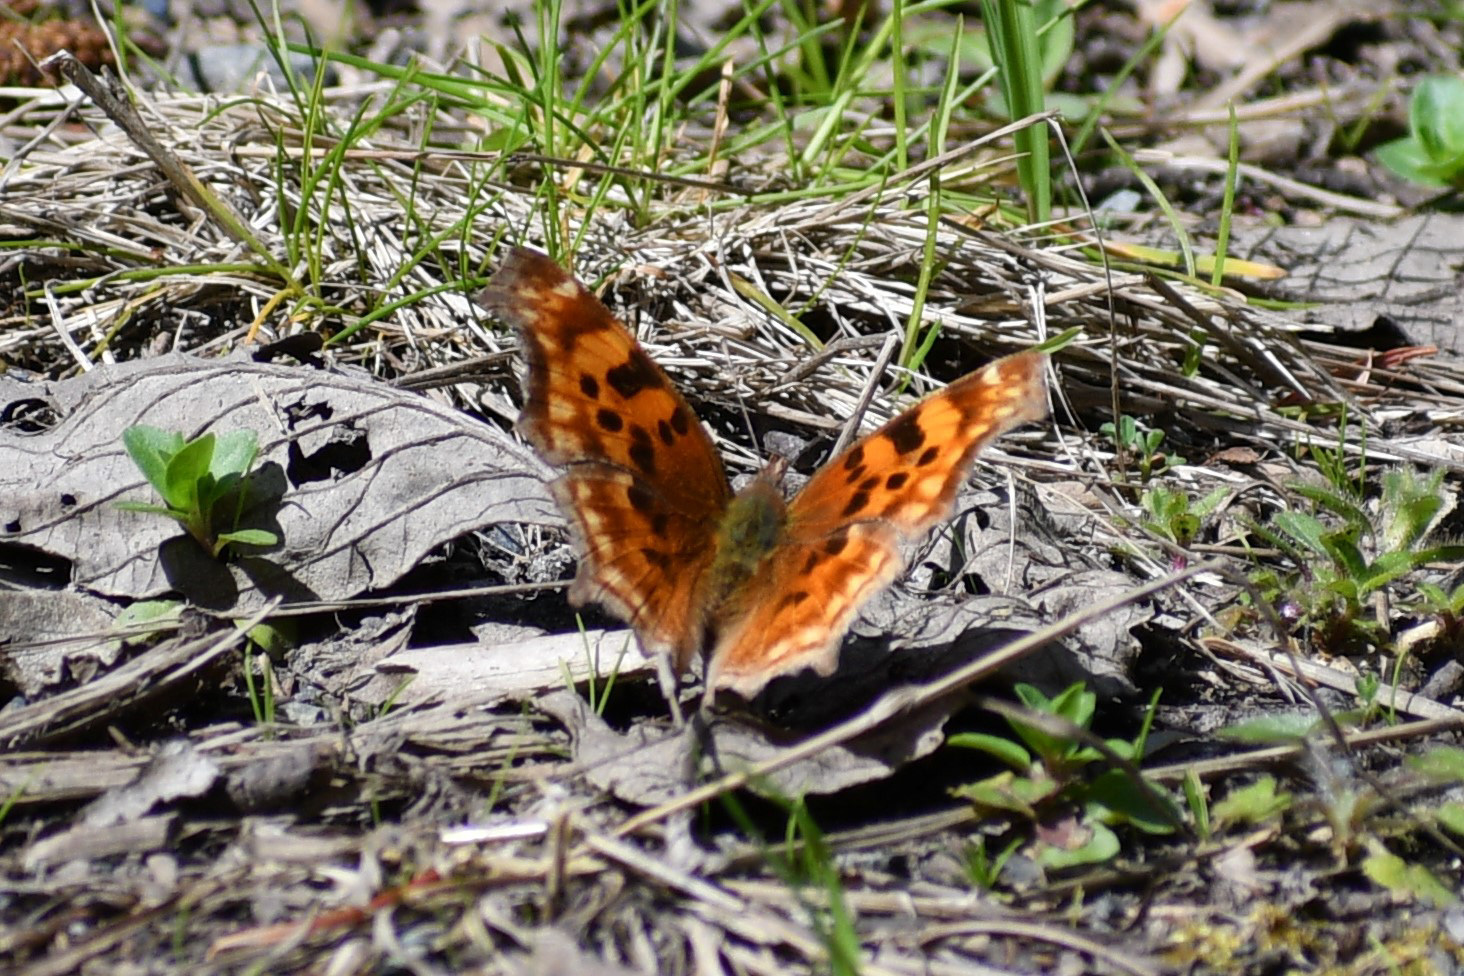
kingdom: Animalia
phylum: Arthropoda
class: Insecta
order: Lepidoptera
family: Nymphalidae
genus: Polygonia
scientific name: Polygonia satyrus
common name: Satyr angle wing
